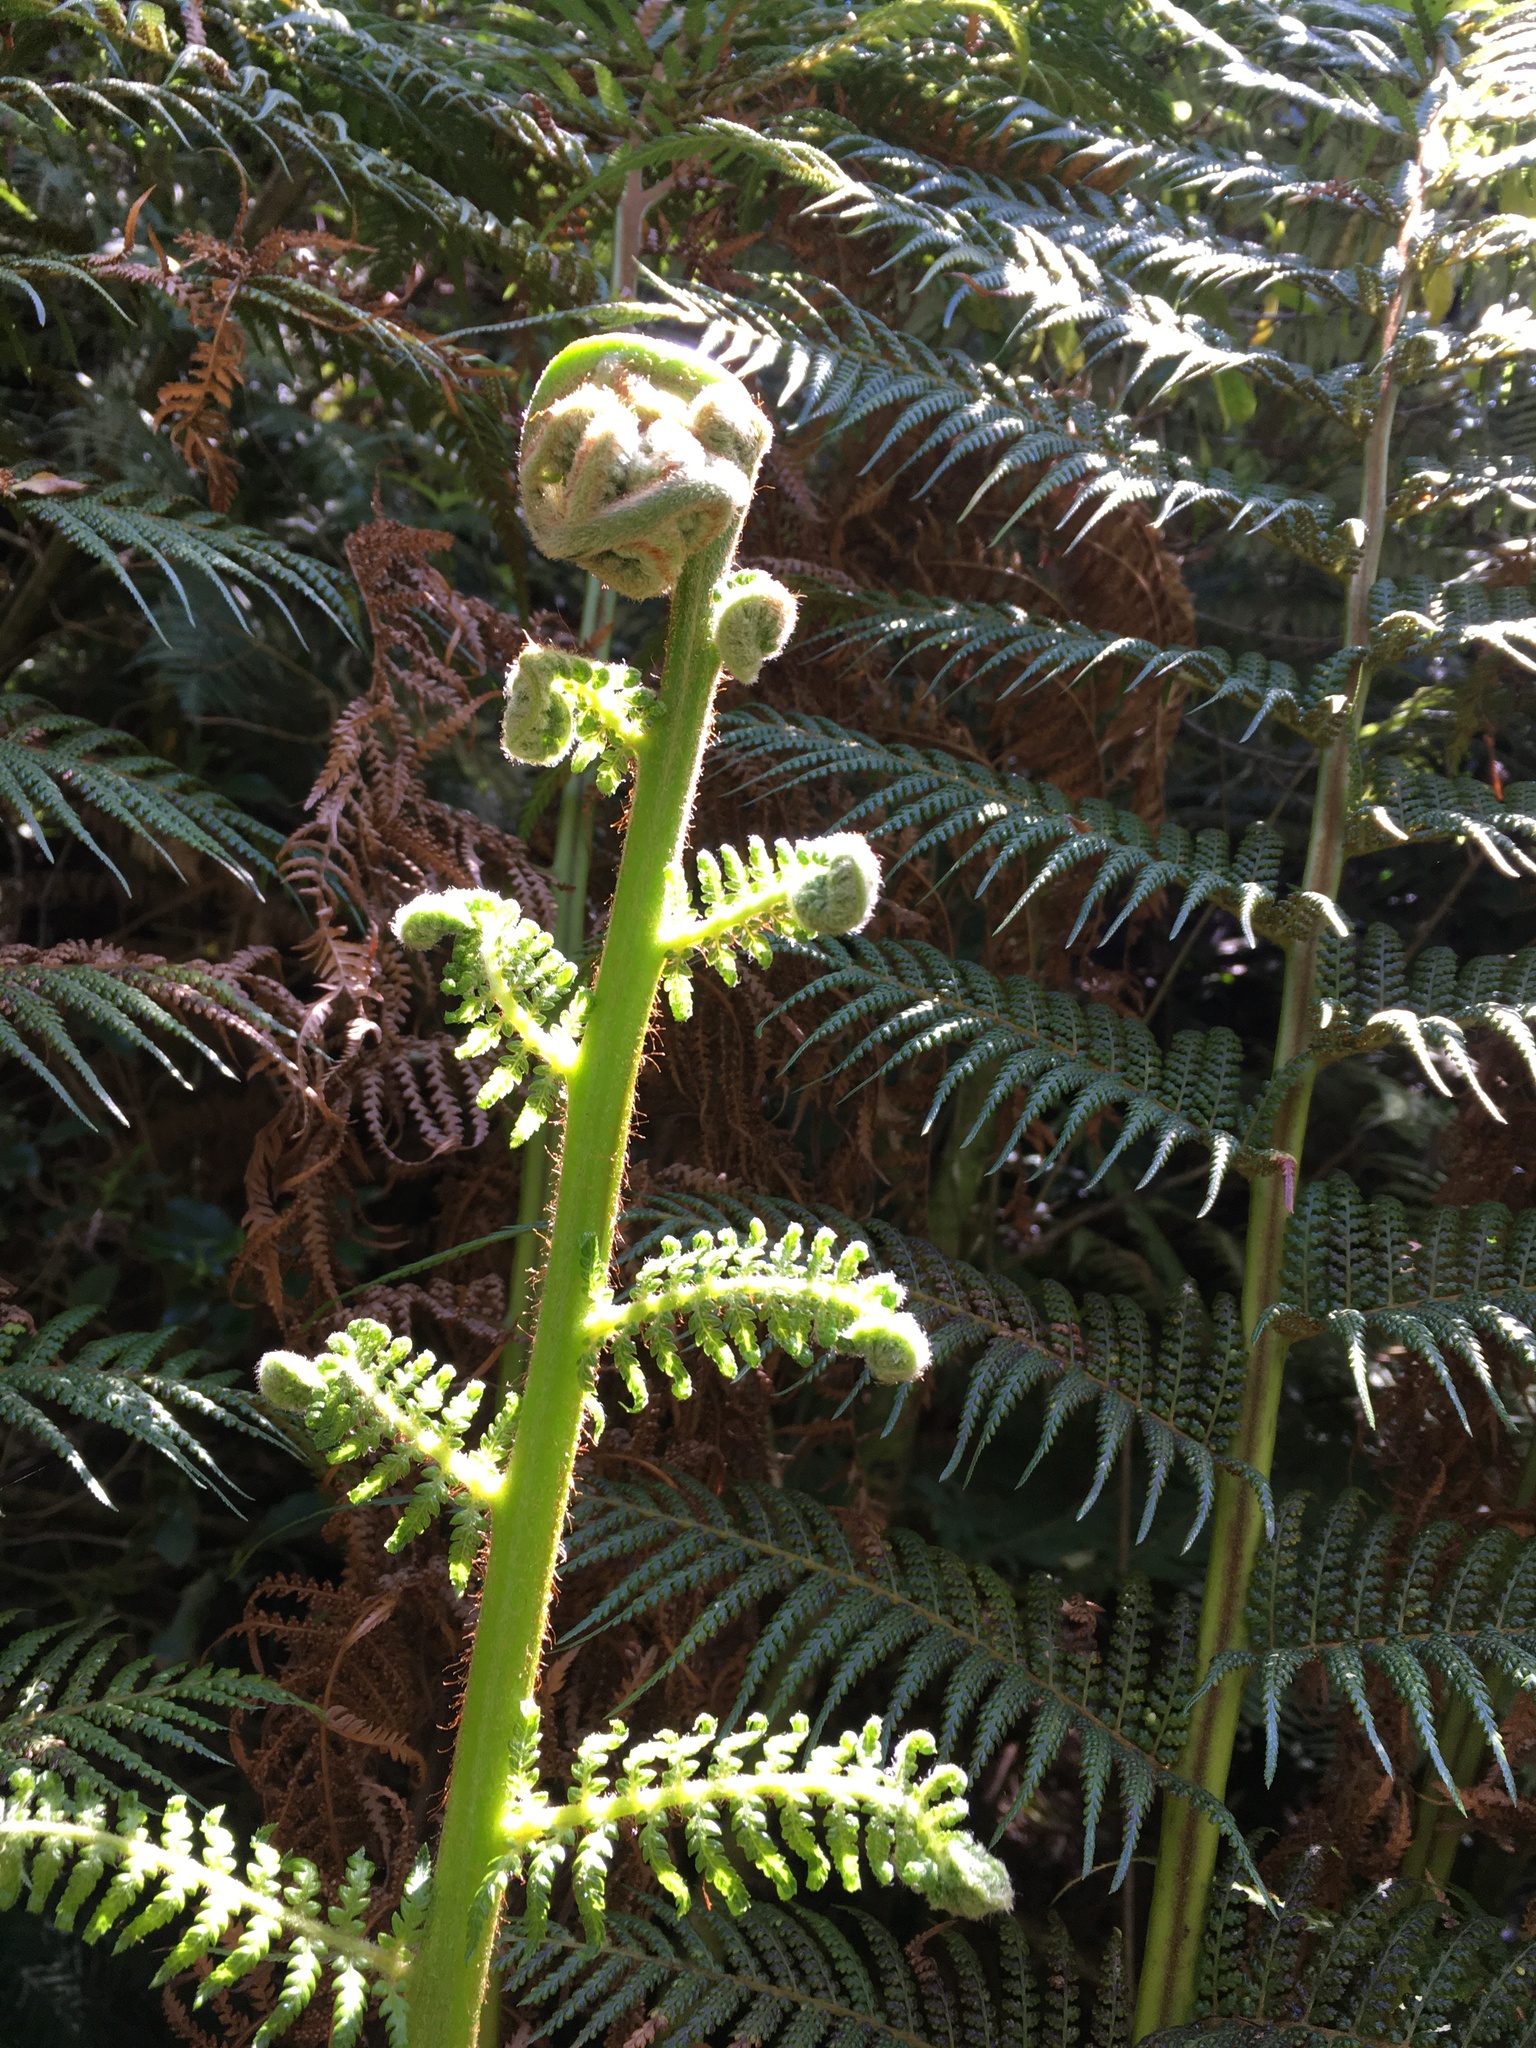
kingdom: Plantae
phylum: Tracheophyta
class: Polypodiopsida
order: Cyatheales
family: Dicksoniaceae
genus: Dicksonia
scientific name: Dicksonia fibrosa
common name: Golden tree fern
